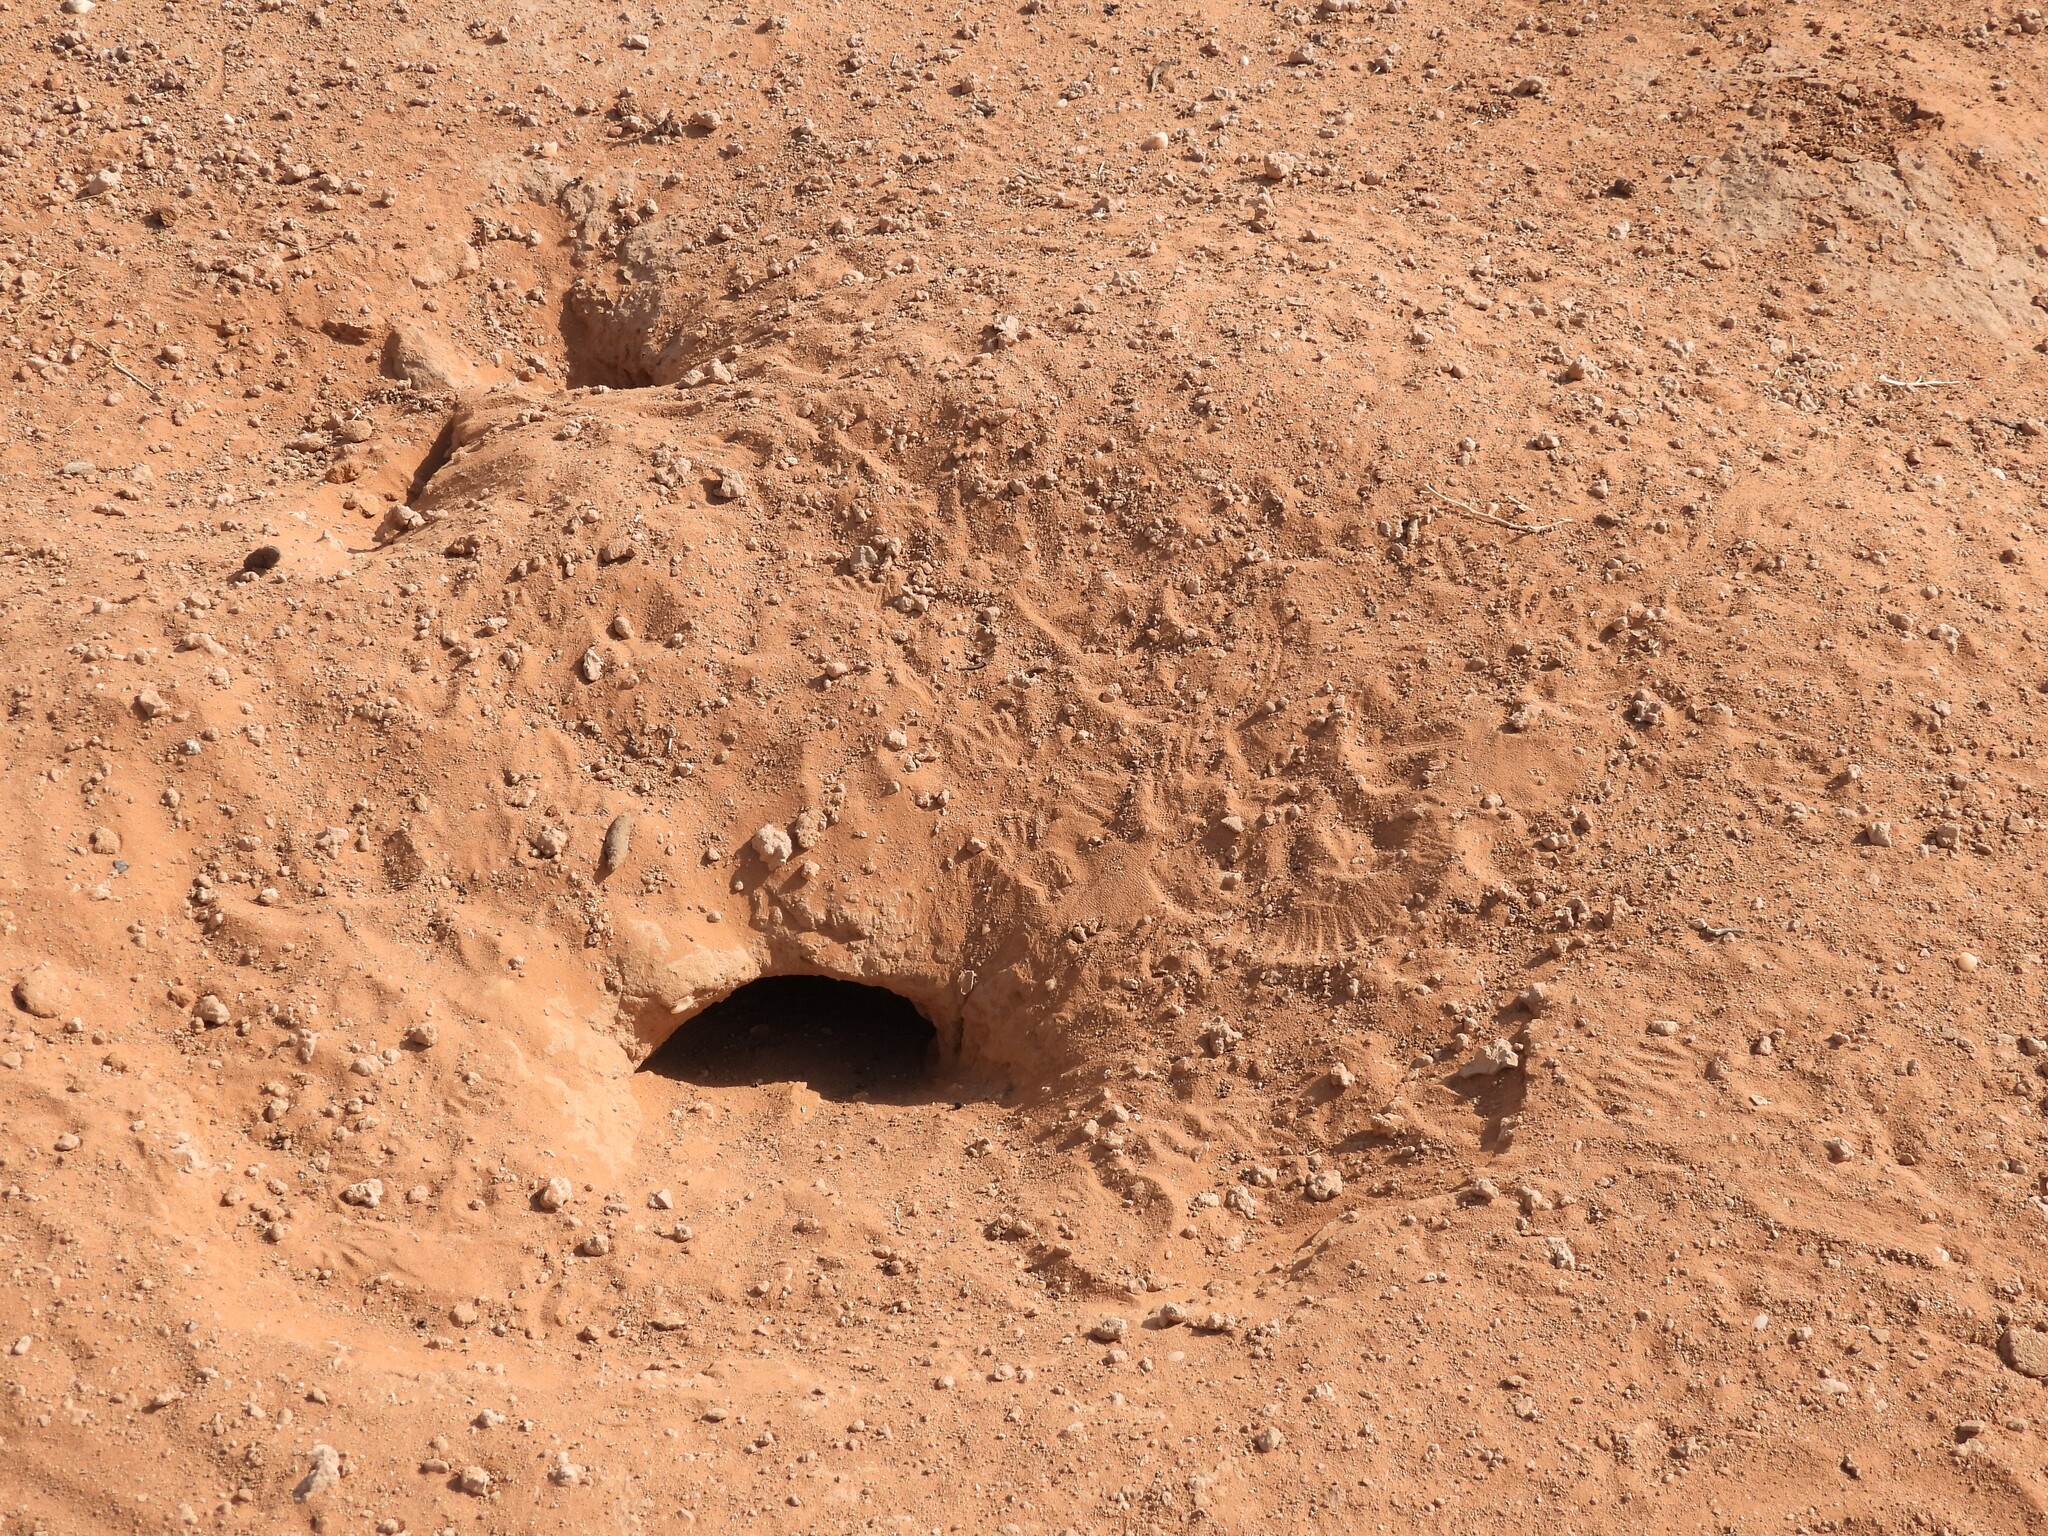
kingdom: Animalia
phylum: Chordata
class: Squamata
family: Agamidae
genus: Uromastyx
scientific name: Uromastyx aegyptia
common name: Egyptian mastigure
